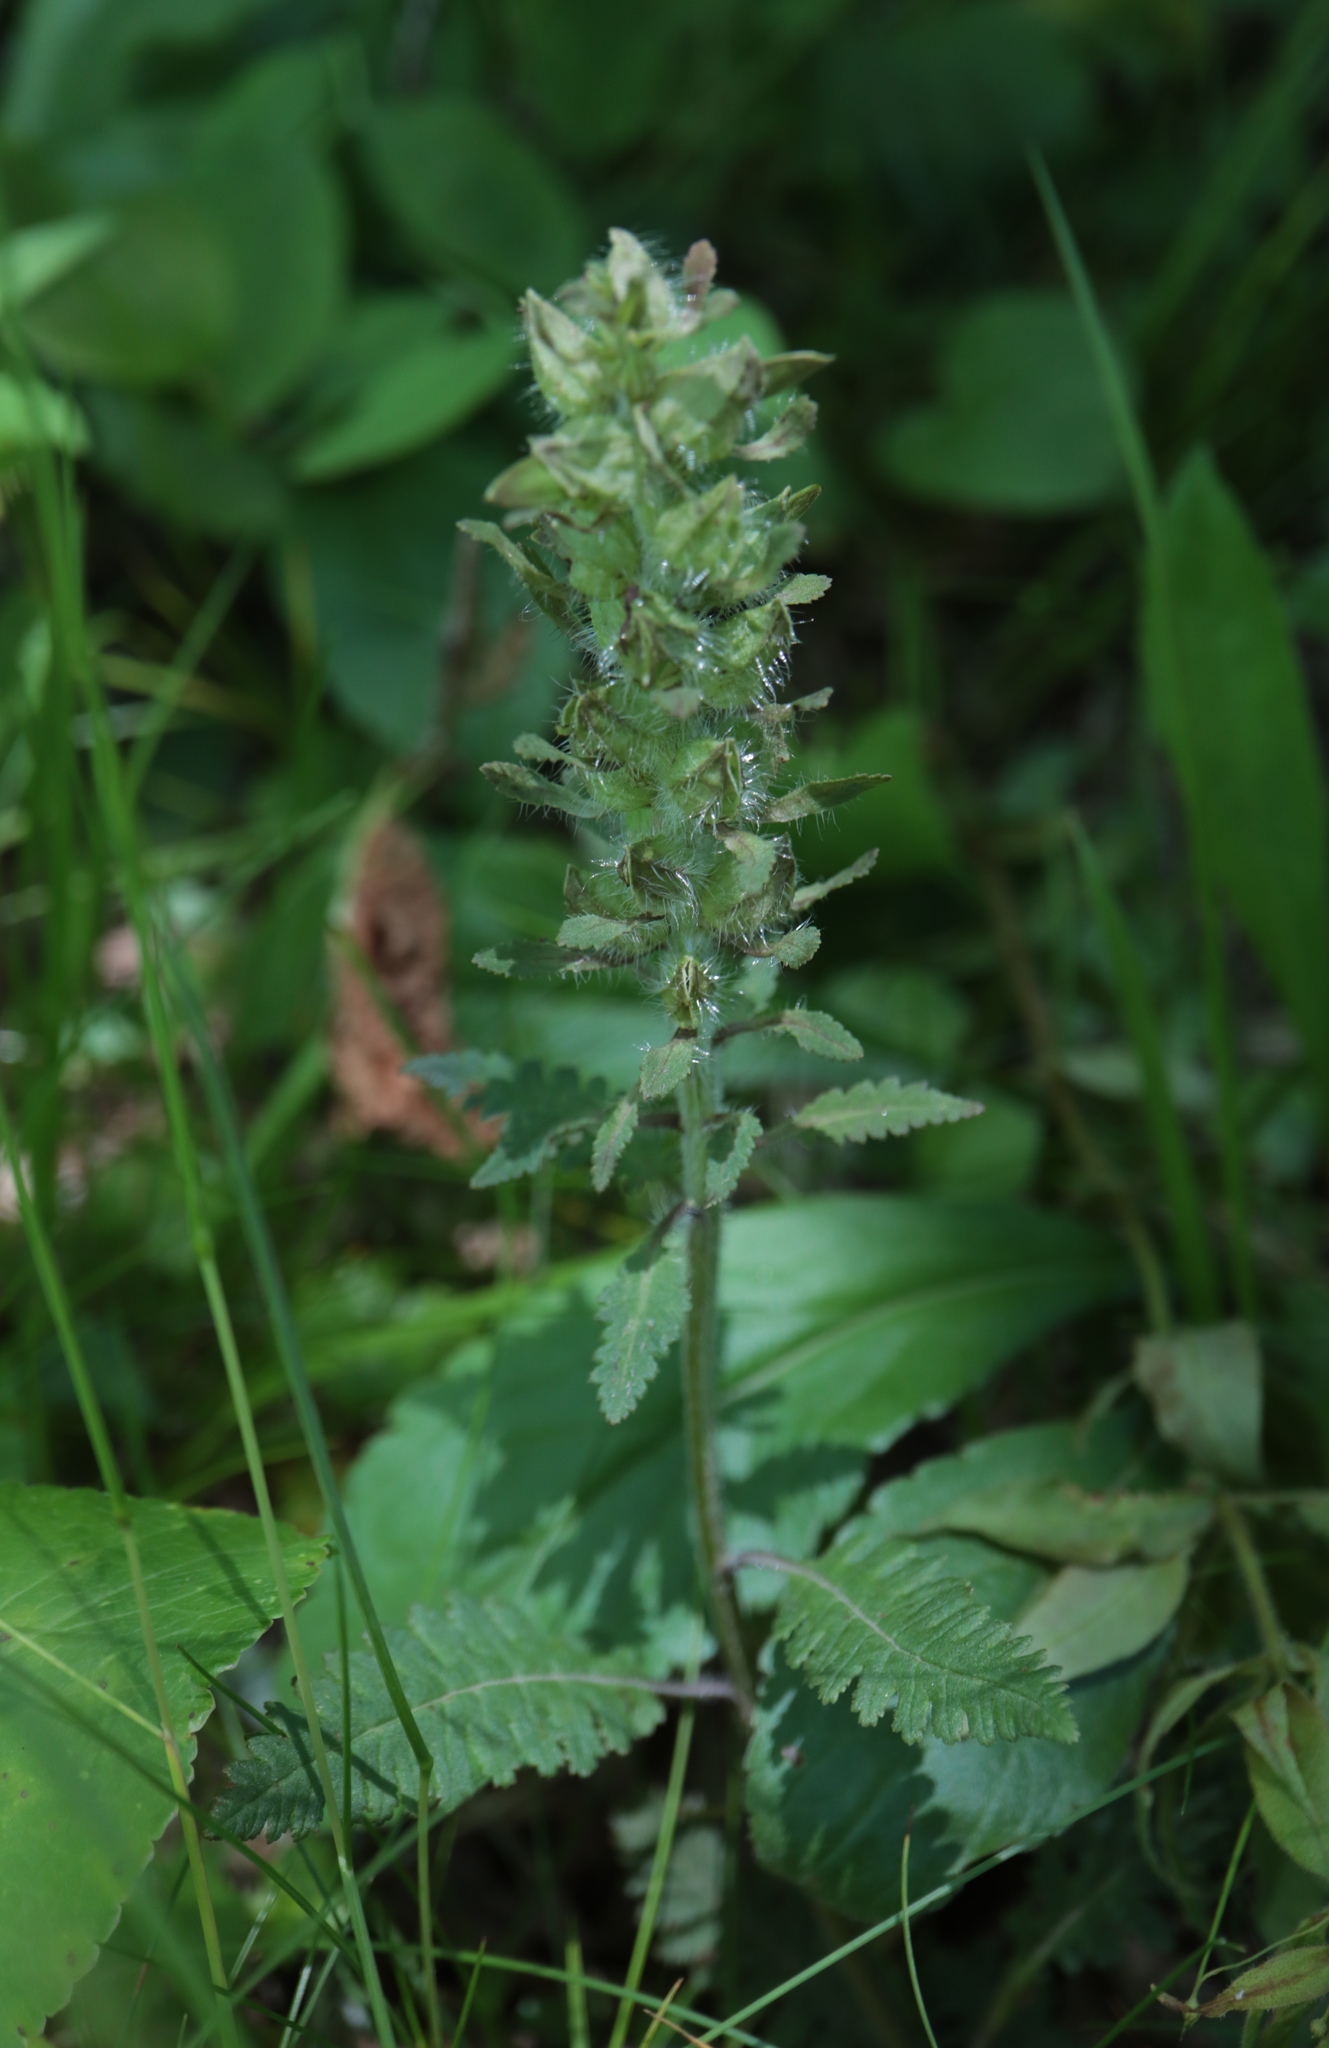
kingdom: Plantae
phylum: Tracheophyta
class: Magnoliopsida
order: Lamiales
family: Orobanchaceae
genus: Pedicularis
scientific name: Pedicularis canadensis
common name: Early lousewort
